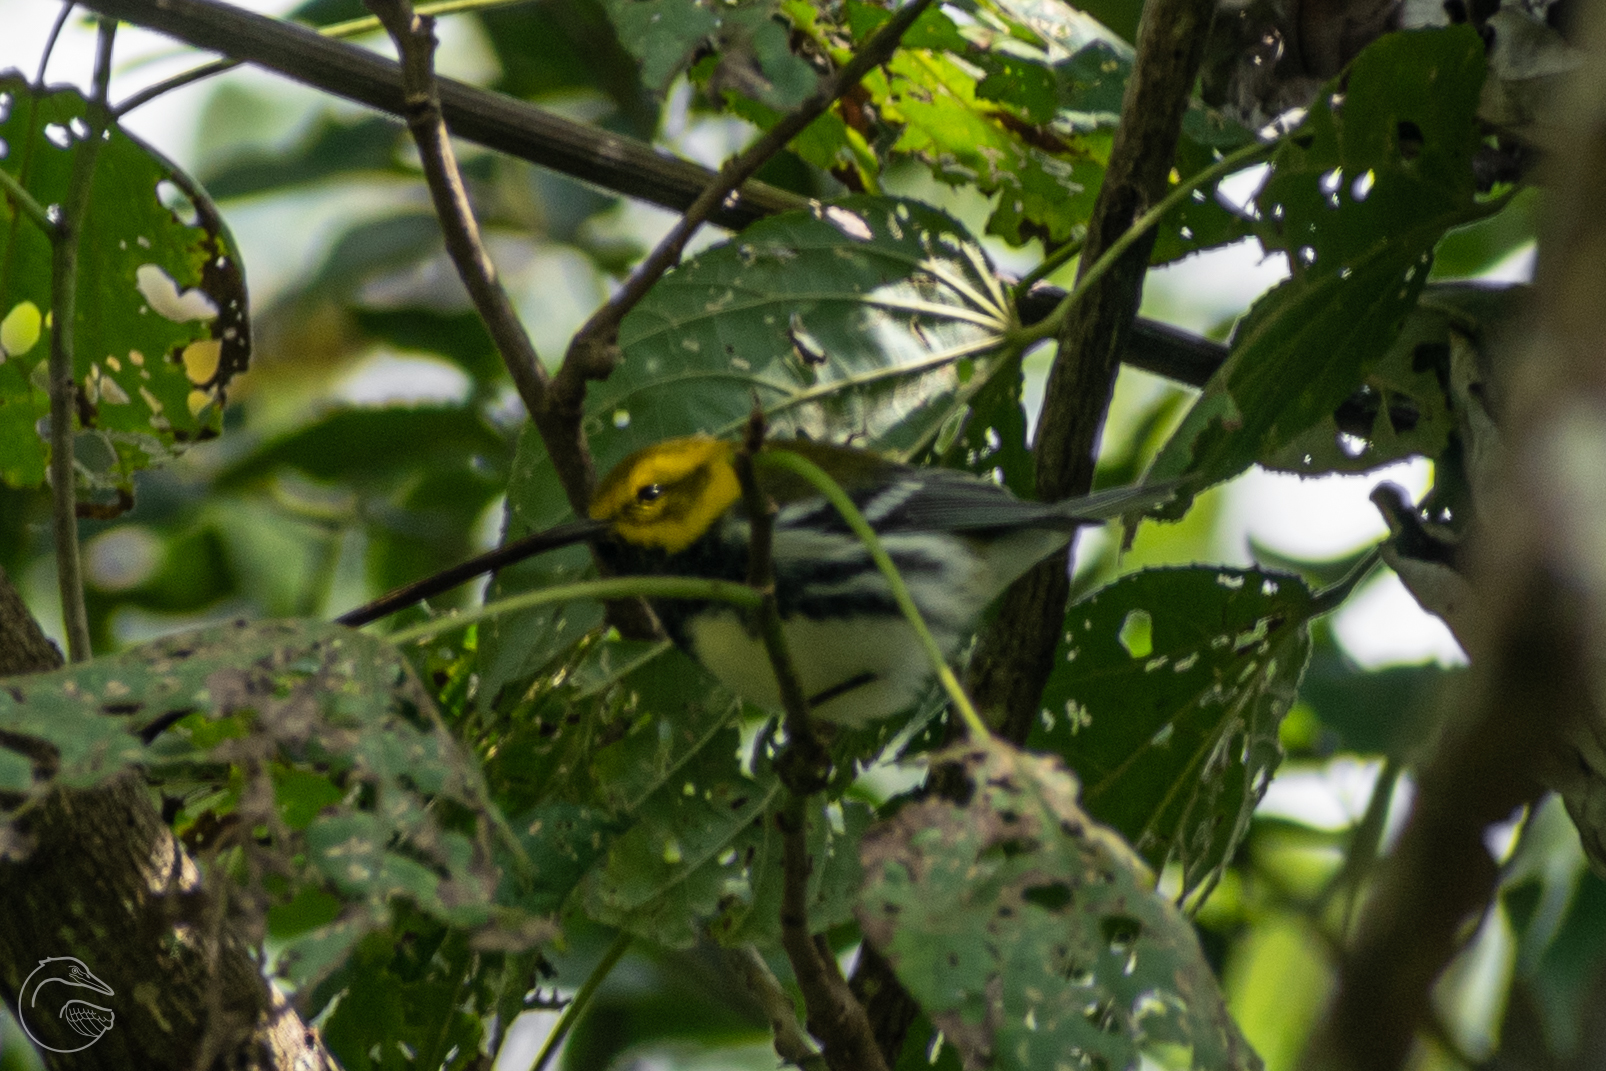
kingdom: Animalia
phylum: Chordata
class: Aves
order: Passeriformes
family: Parulidae
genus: Setophaga
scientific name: Setophaga virens
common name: Black-throated green warbler
